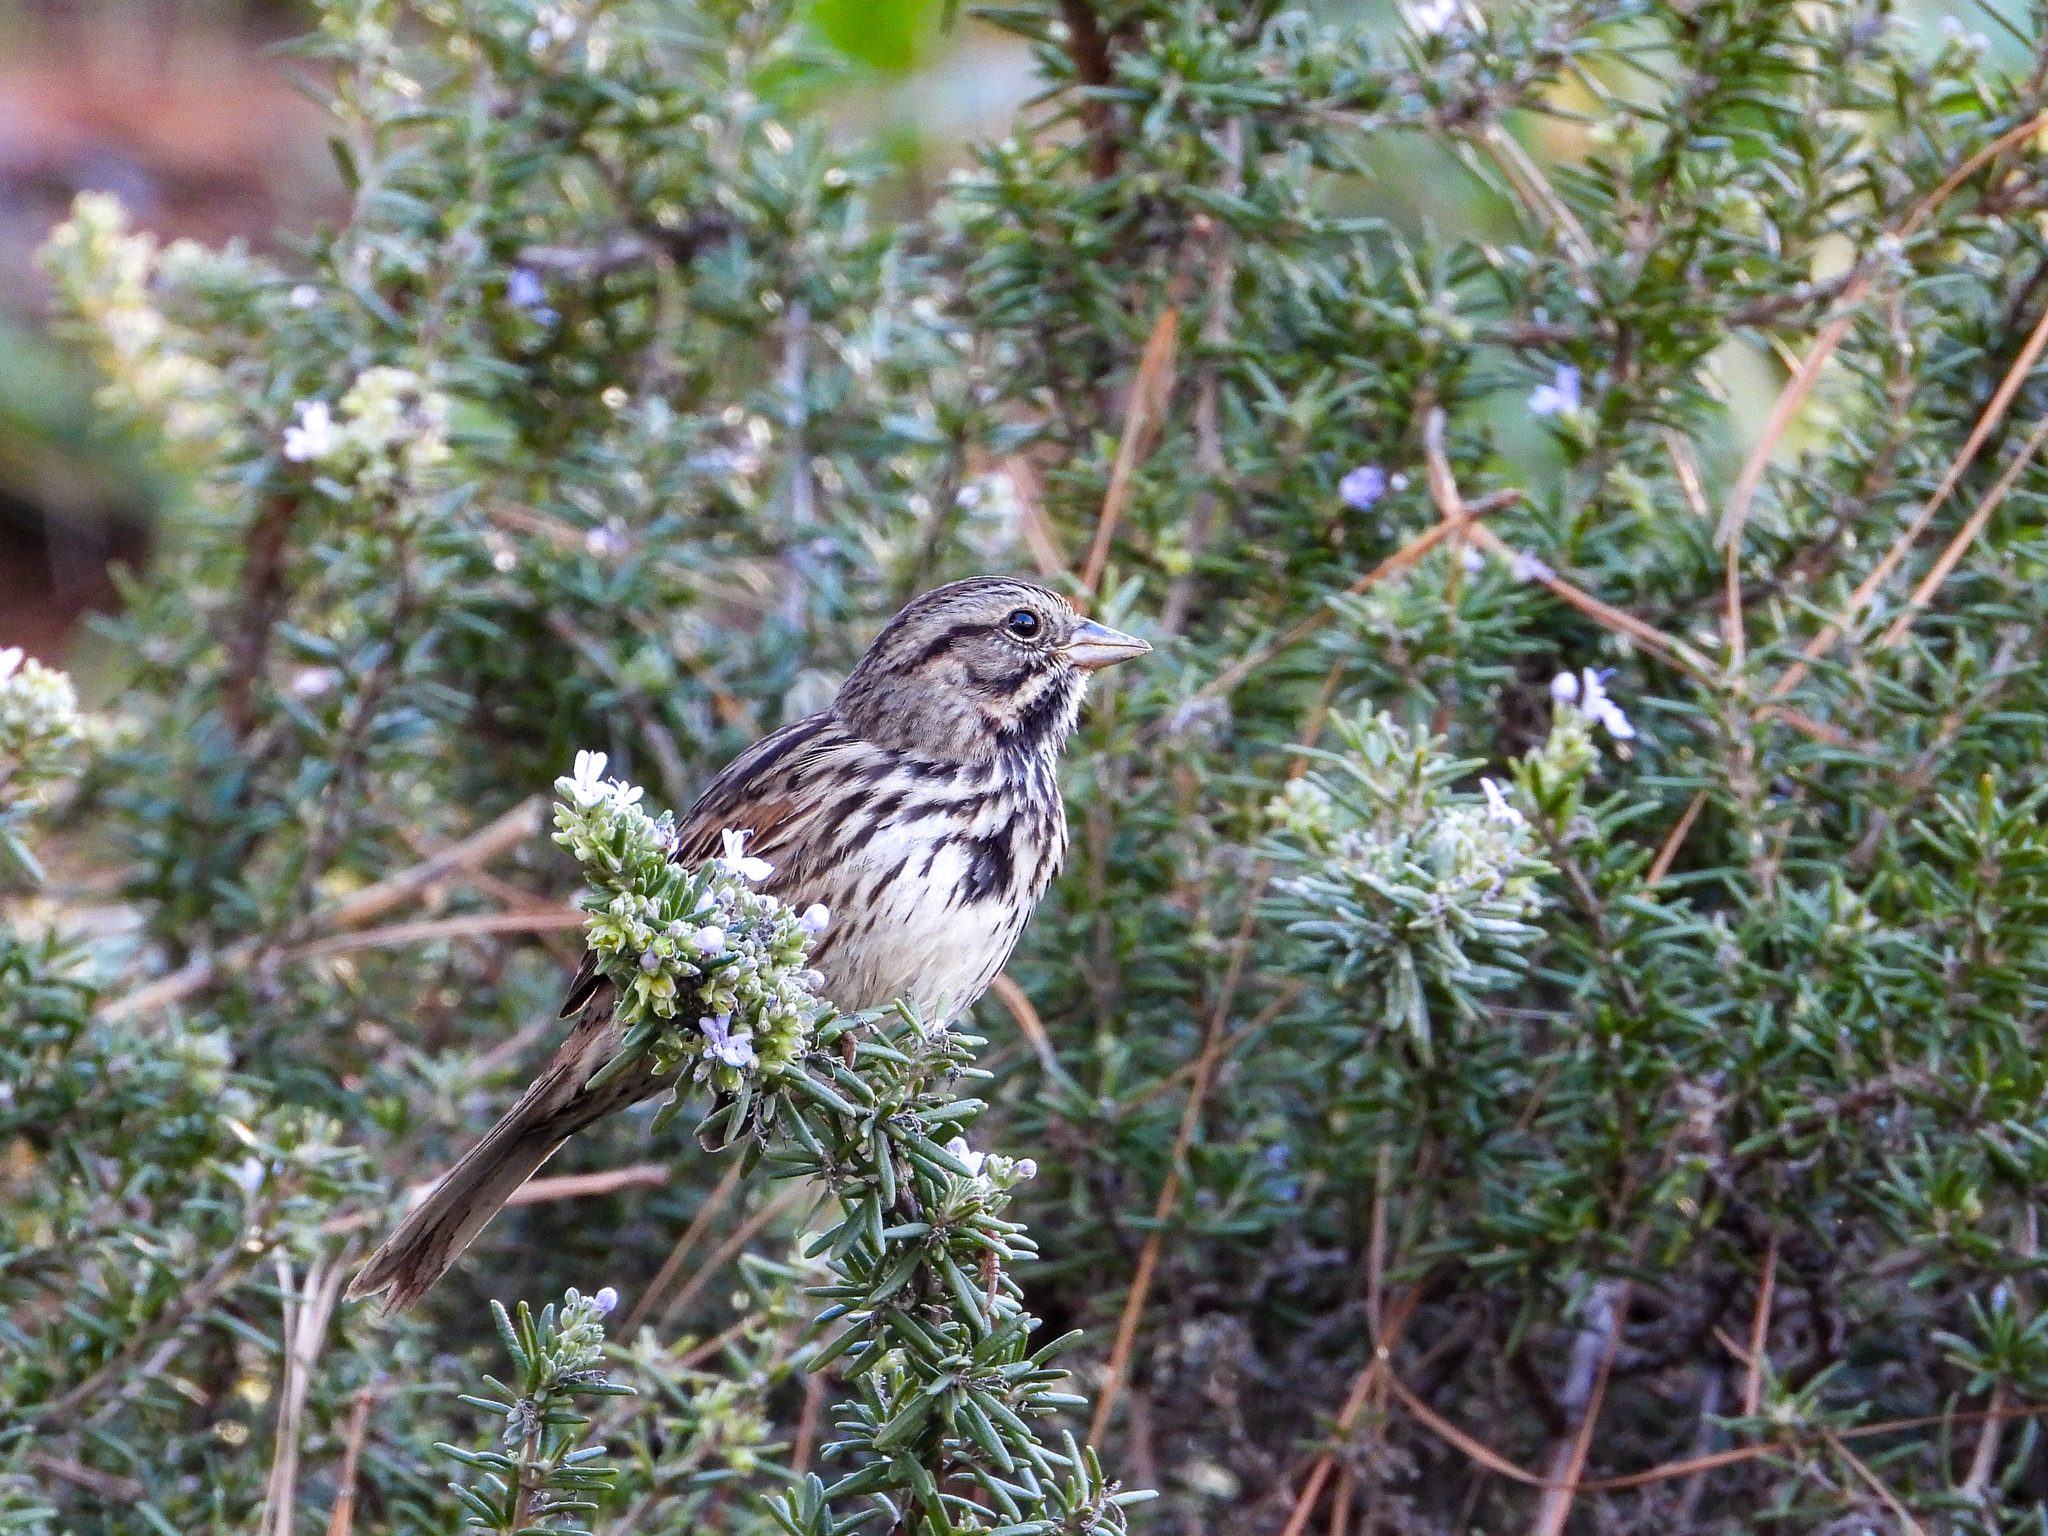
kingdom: Animalia
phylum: Chordata
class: Aves
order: Passeriformes
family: Passerellidae
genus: Melospiza
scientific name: Melospiza melodia
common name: Song sparrow
